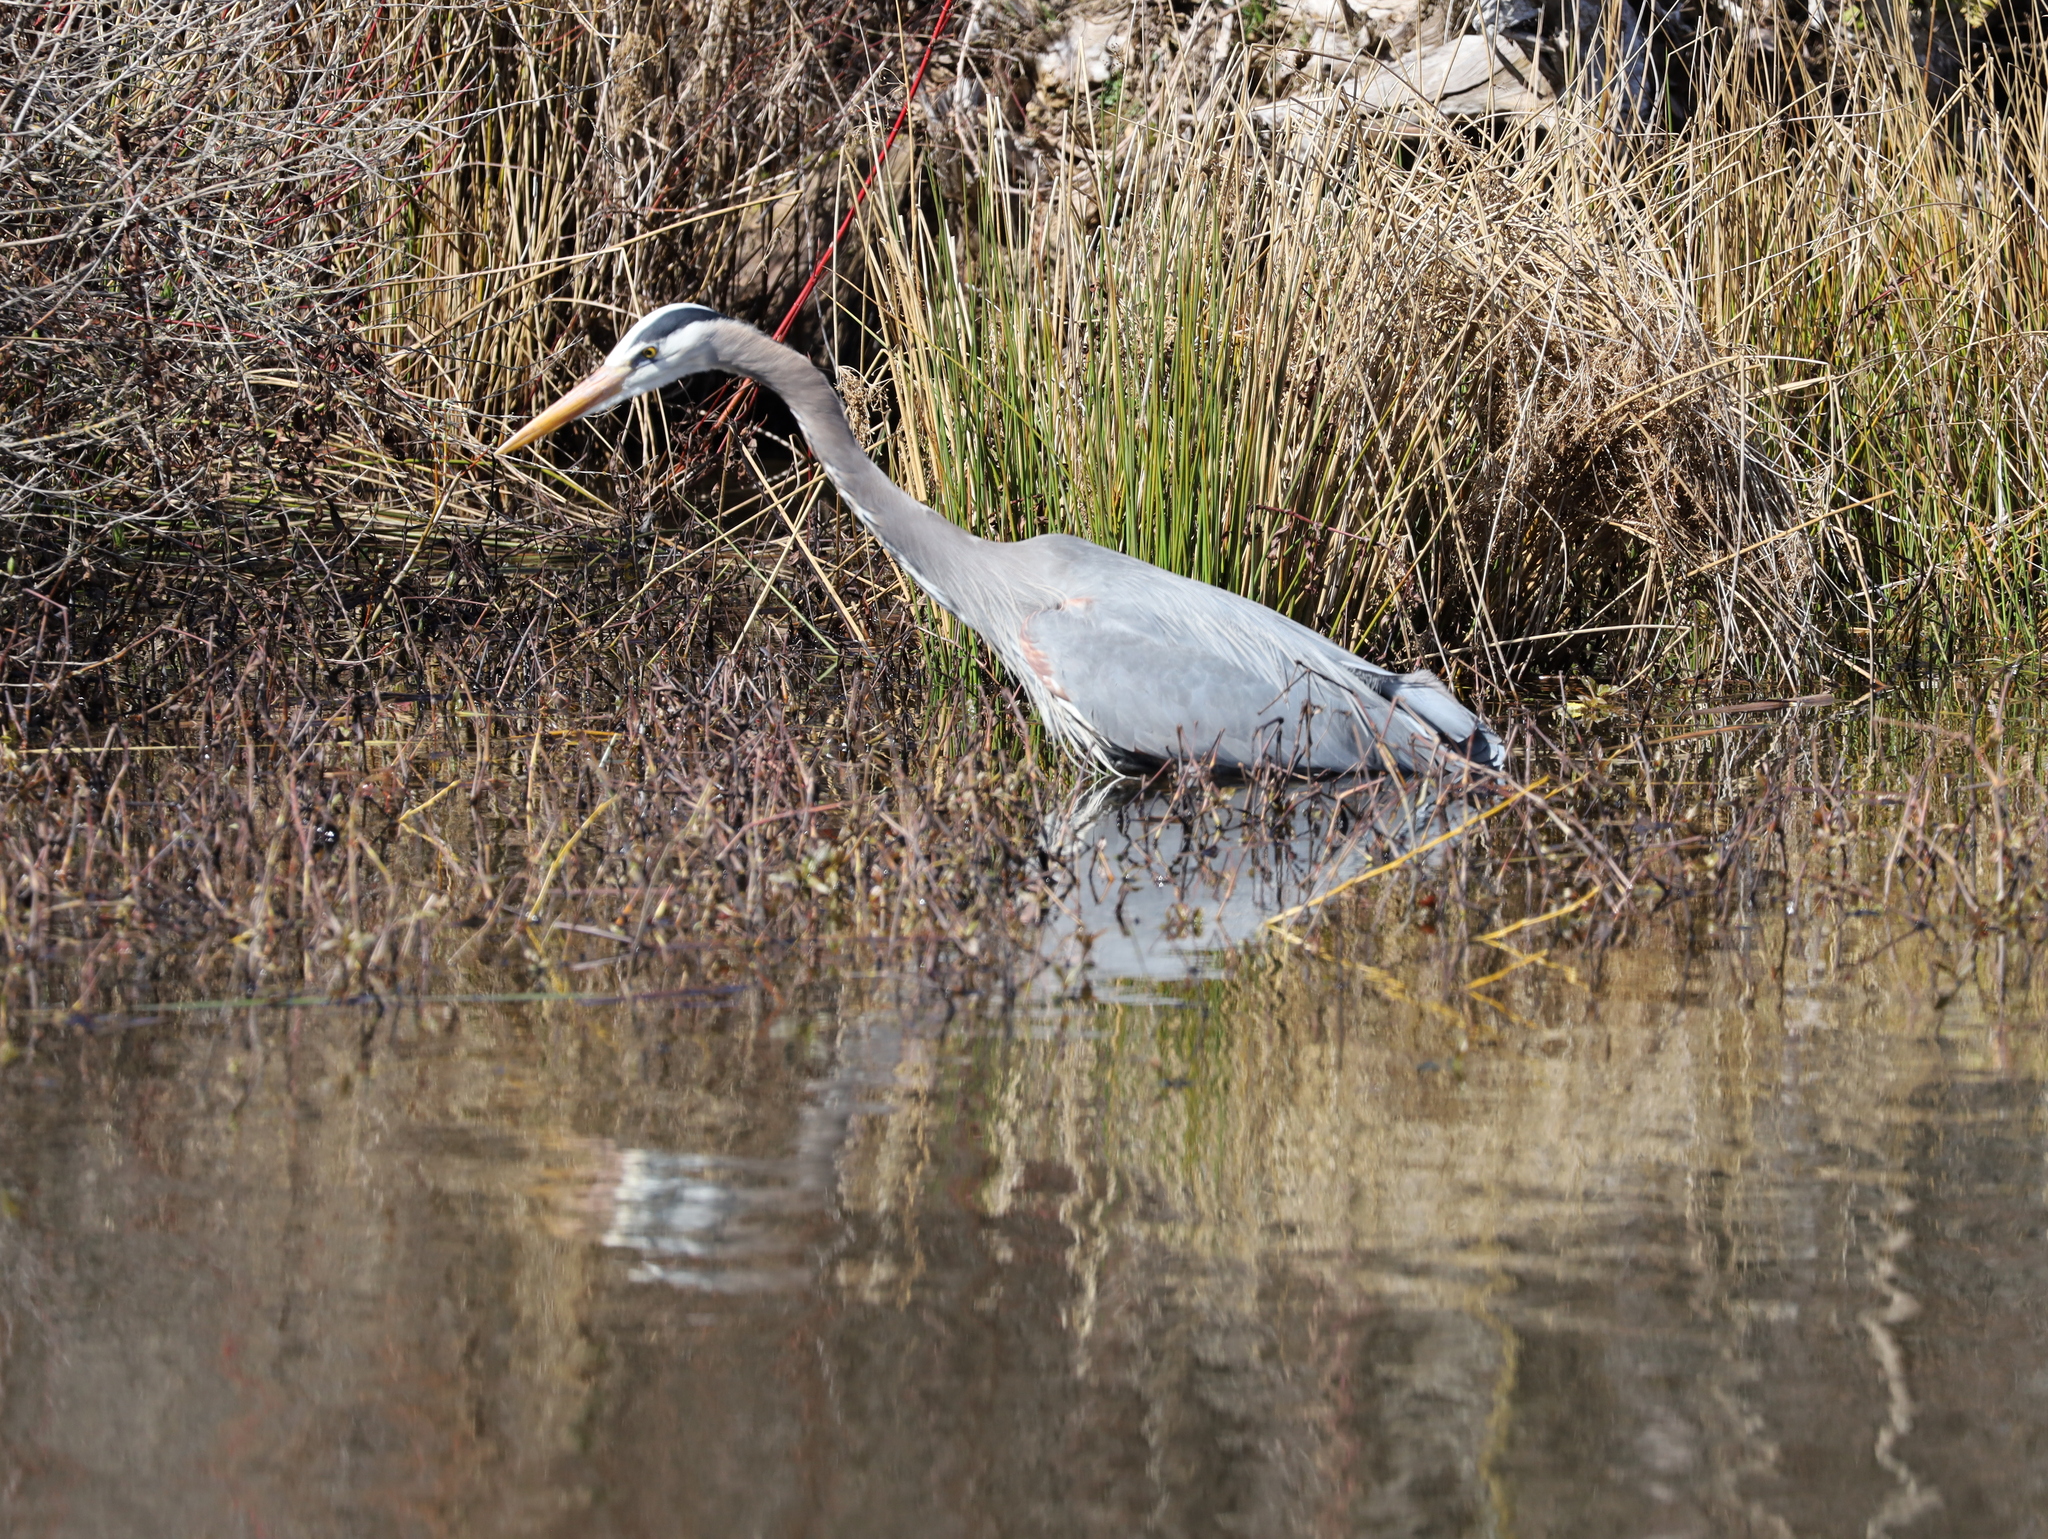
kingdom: Animalia
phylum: Chordata
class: Aves
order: Pelecaniformes
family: Ardeidae
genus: Ardea
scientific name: Ardea herodias
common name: Great blue heron
